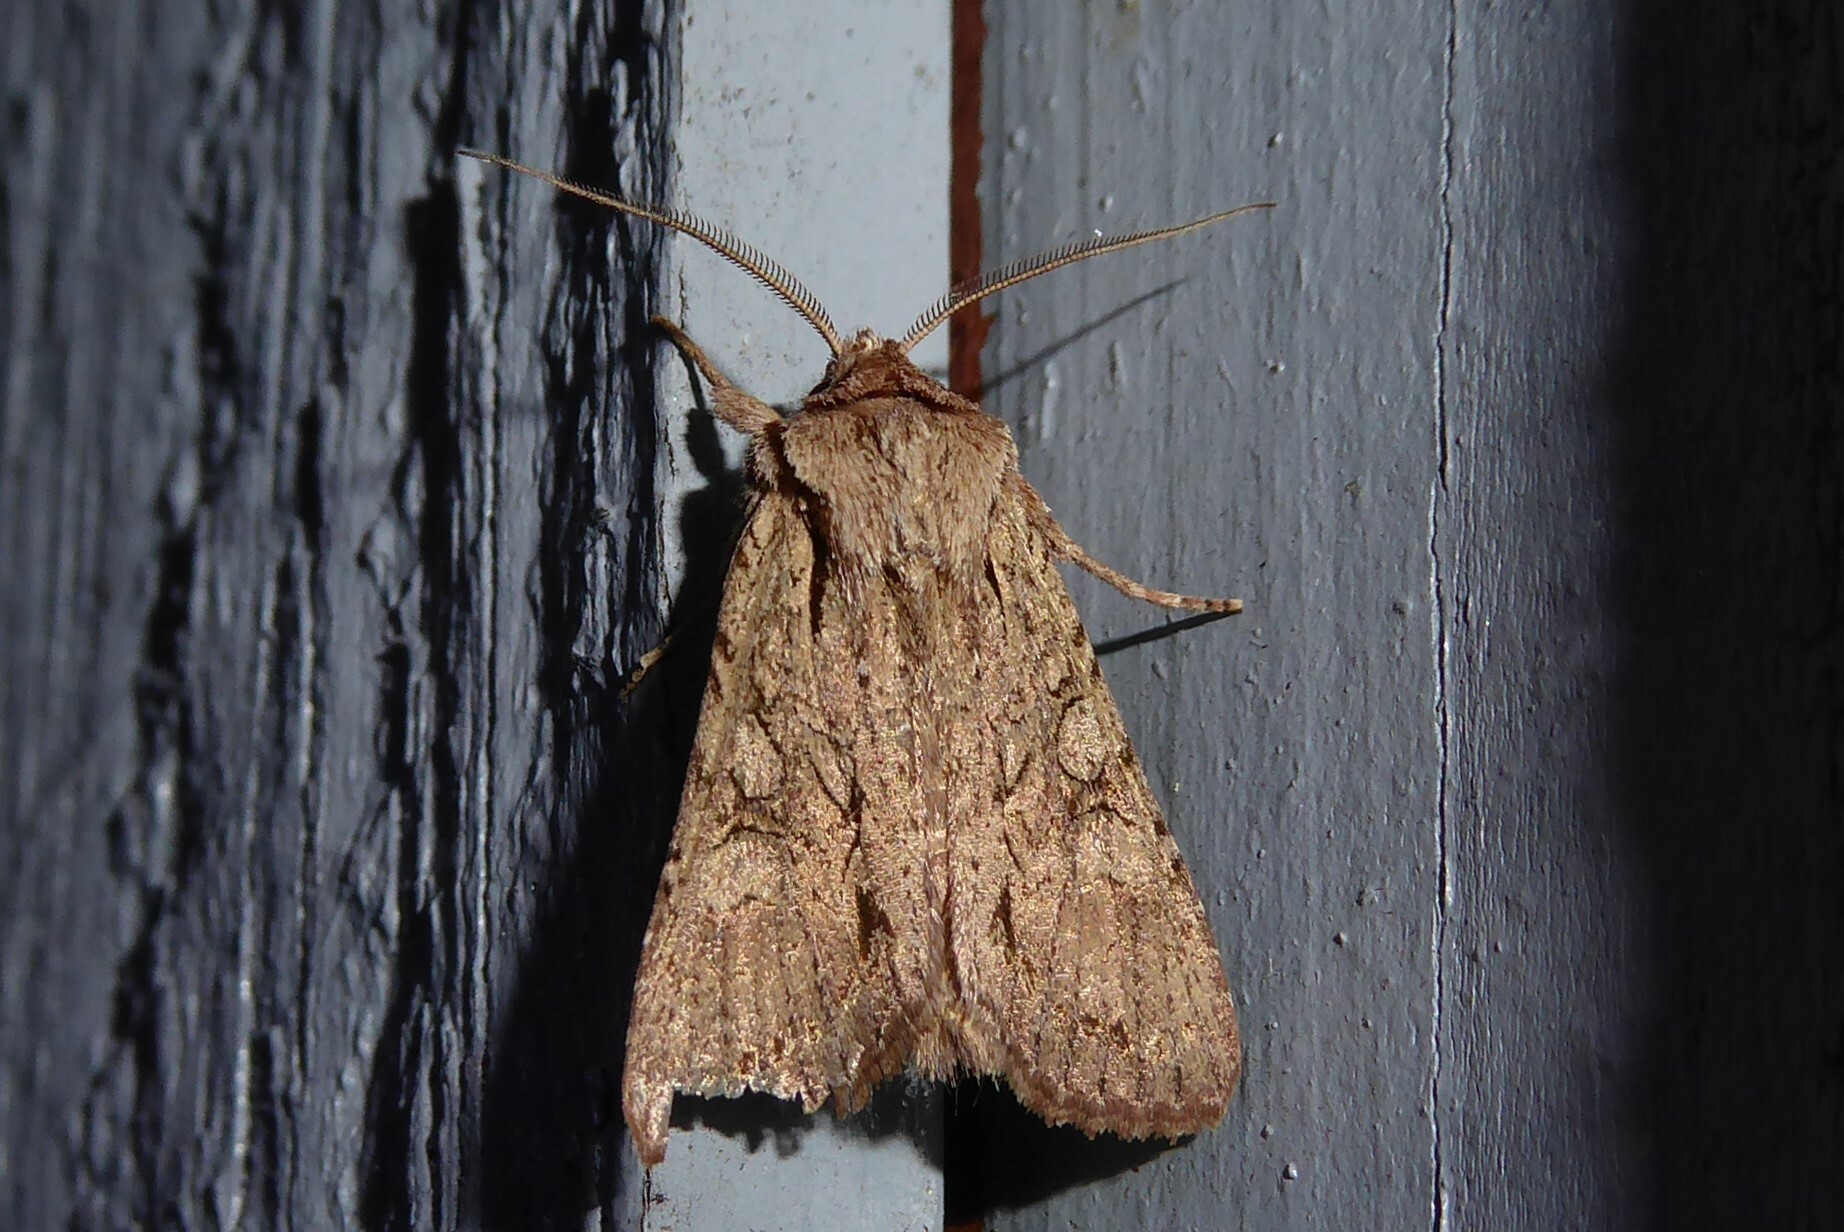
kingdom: Animalia
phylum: Arthropoda
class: Insecta
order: Lepidoptera
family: Noctuidae
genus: Ichneutica
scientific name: Ichneutica
